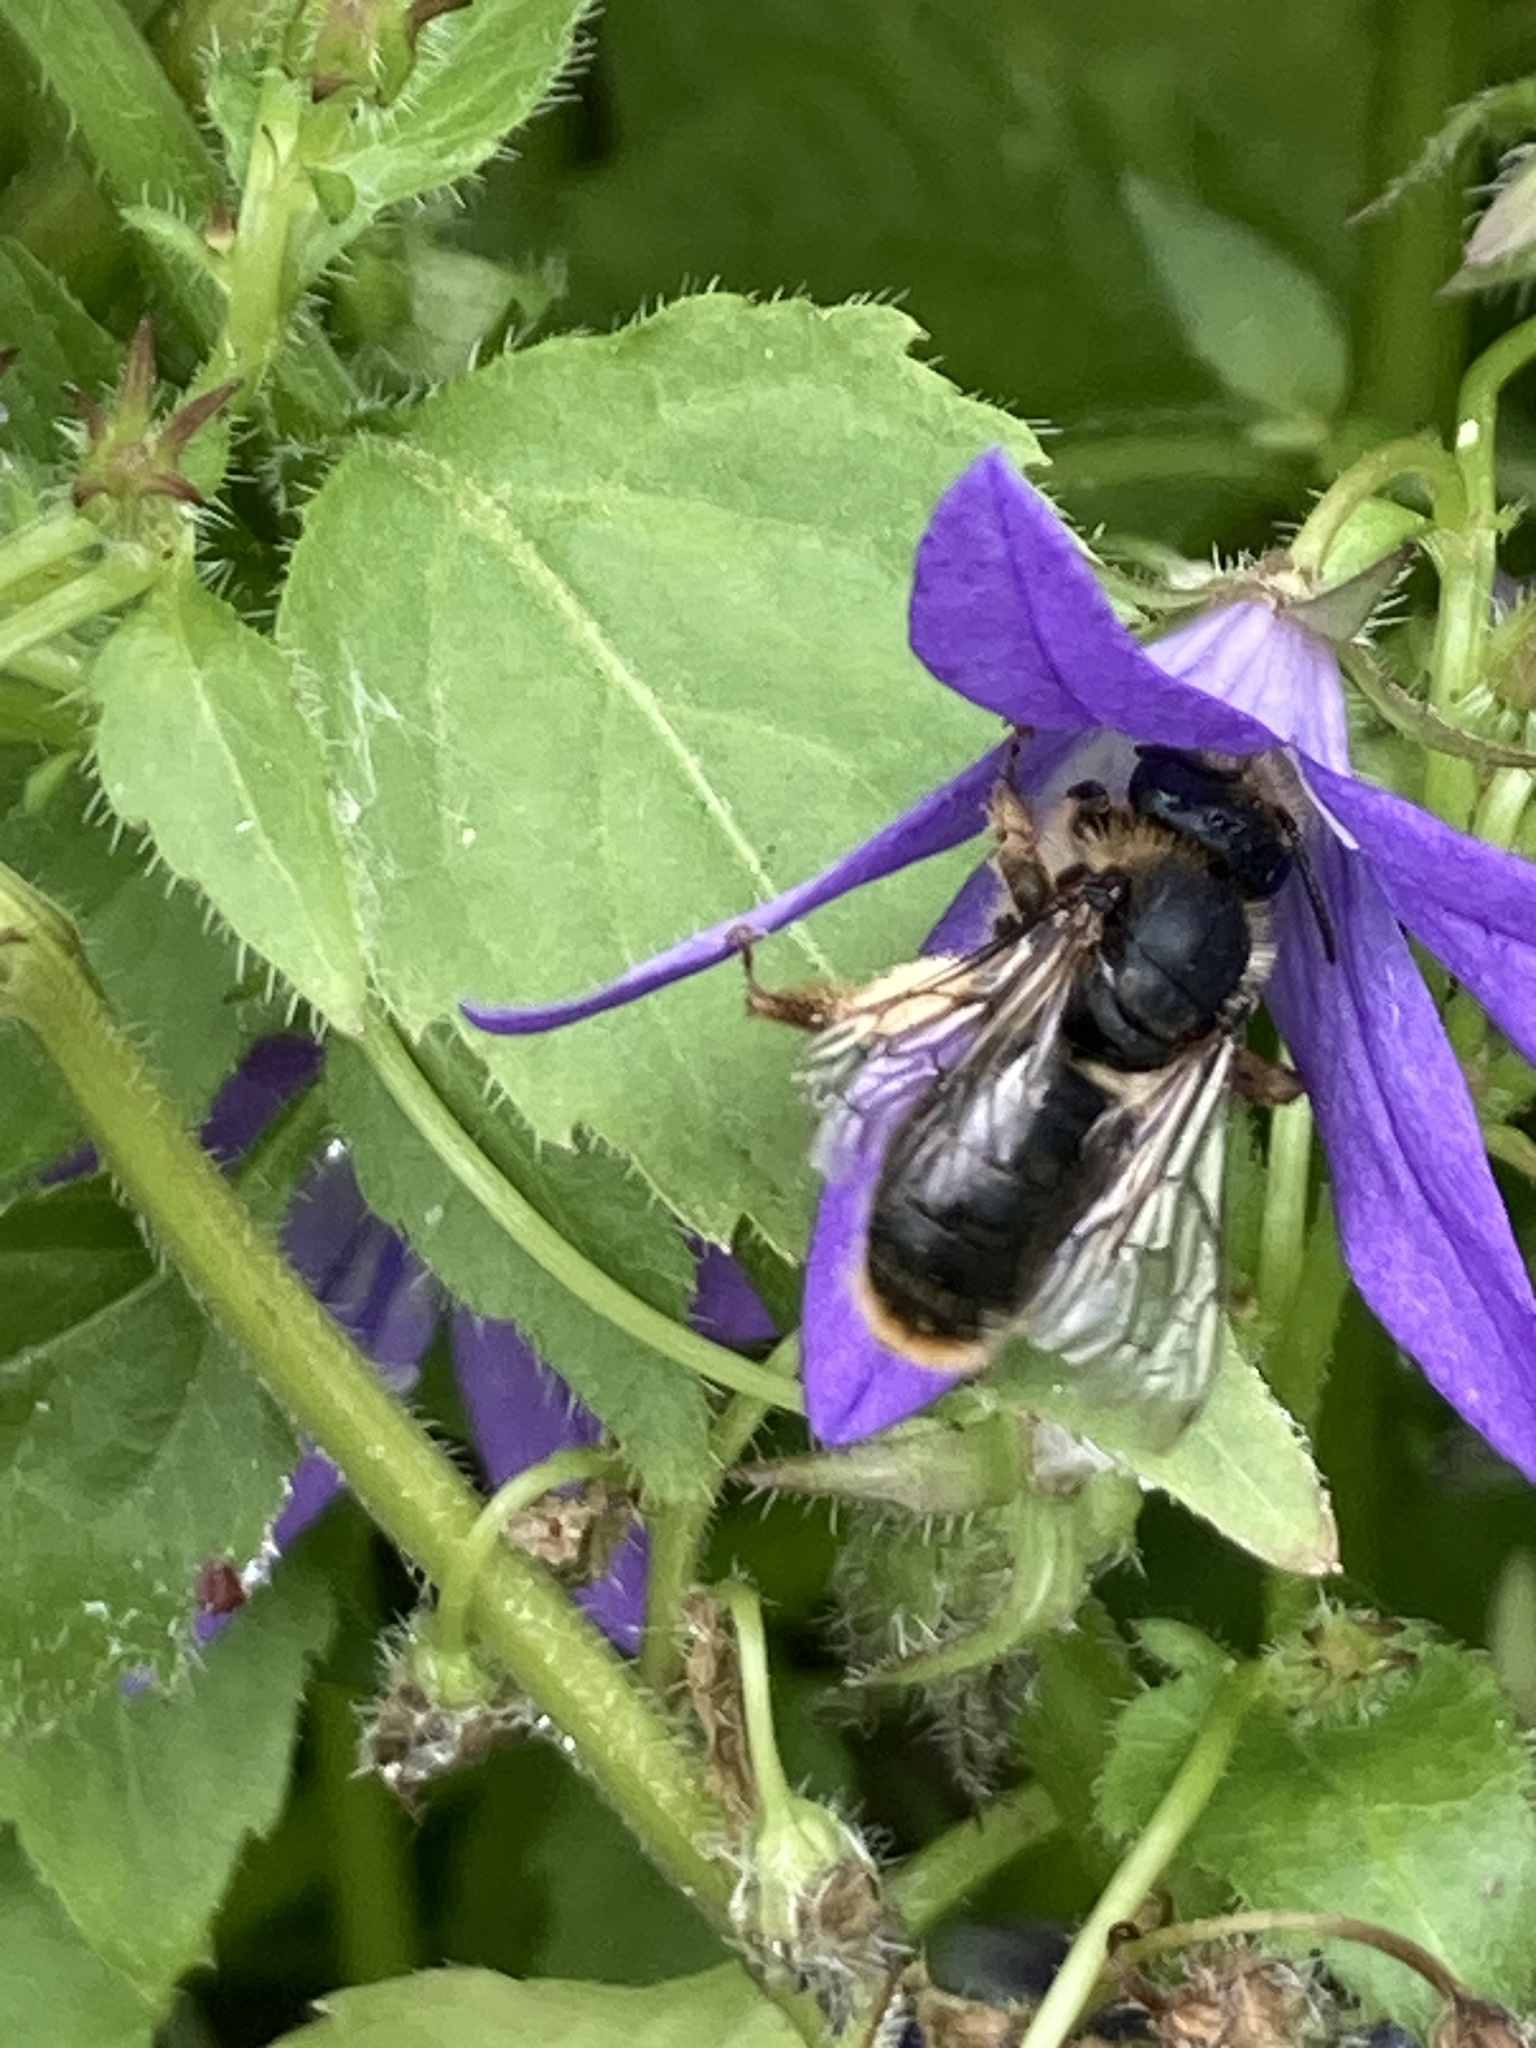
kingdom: Animalia
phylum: Arthropoda
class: Insecta
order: Hymenoptera
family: Melittidae
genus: Melitta
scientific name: Melitta haemorrhoidalis
